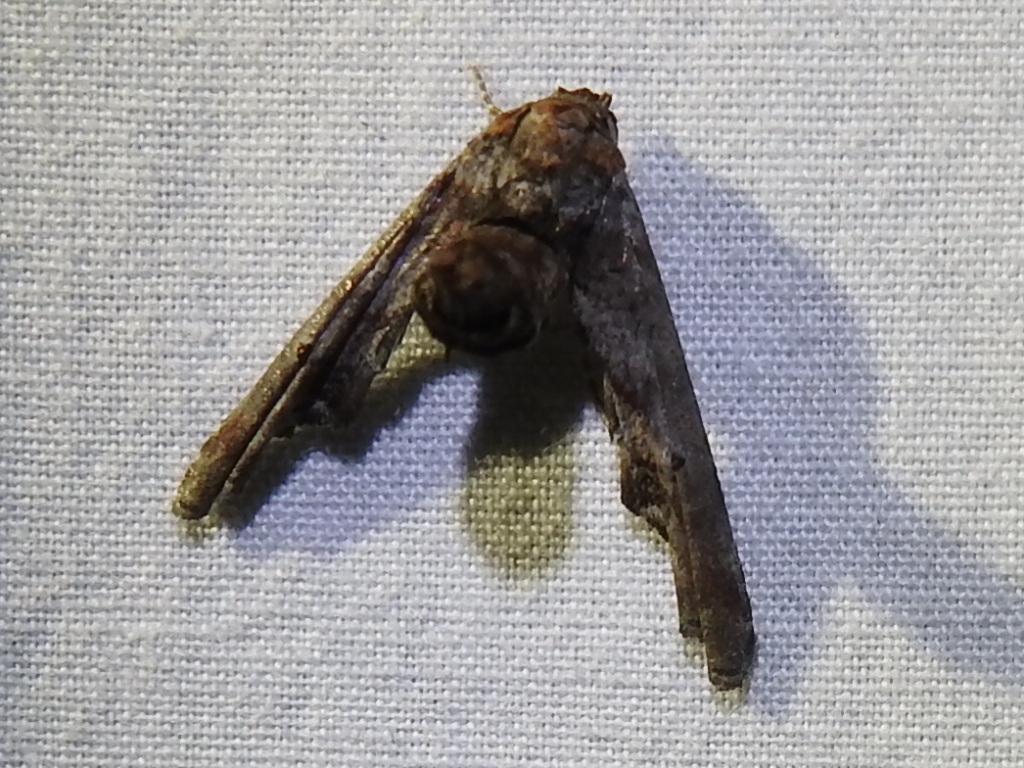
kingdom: Animalia
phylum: Arthropoda
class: Insecta
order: Lepidoptera
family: Euteliidae
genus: Marathyssa
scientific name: Marathyssa inficita
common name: Dark marathyssa moth
